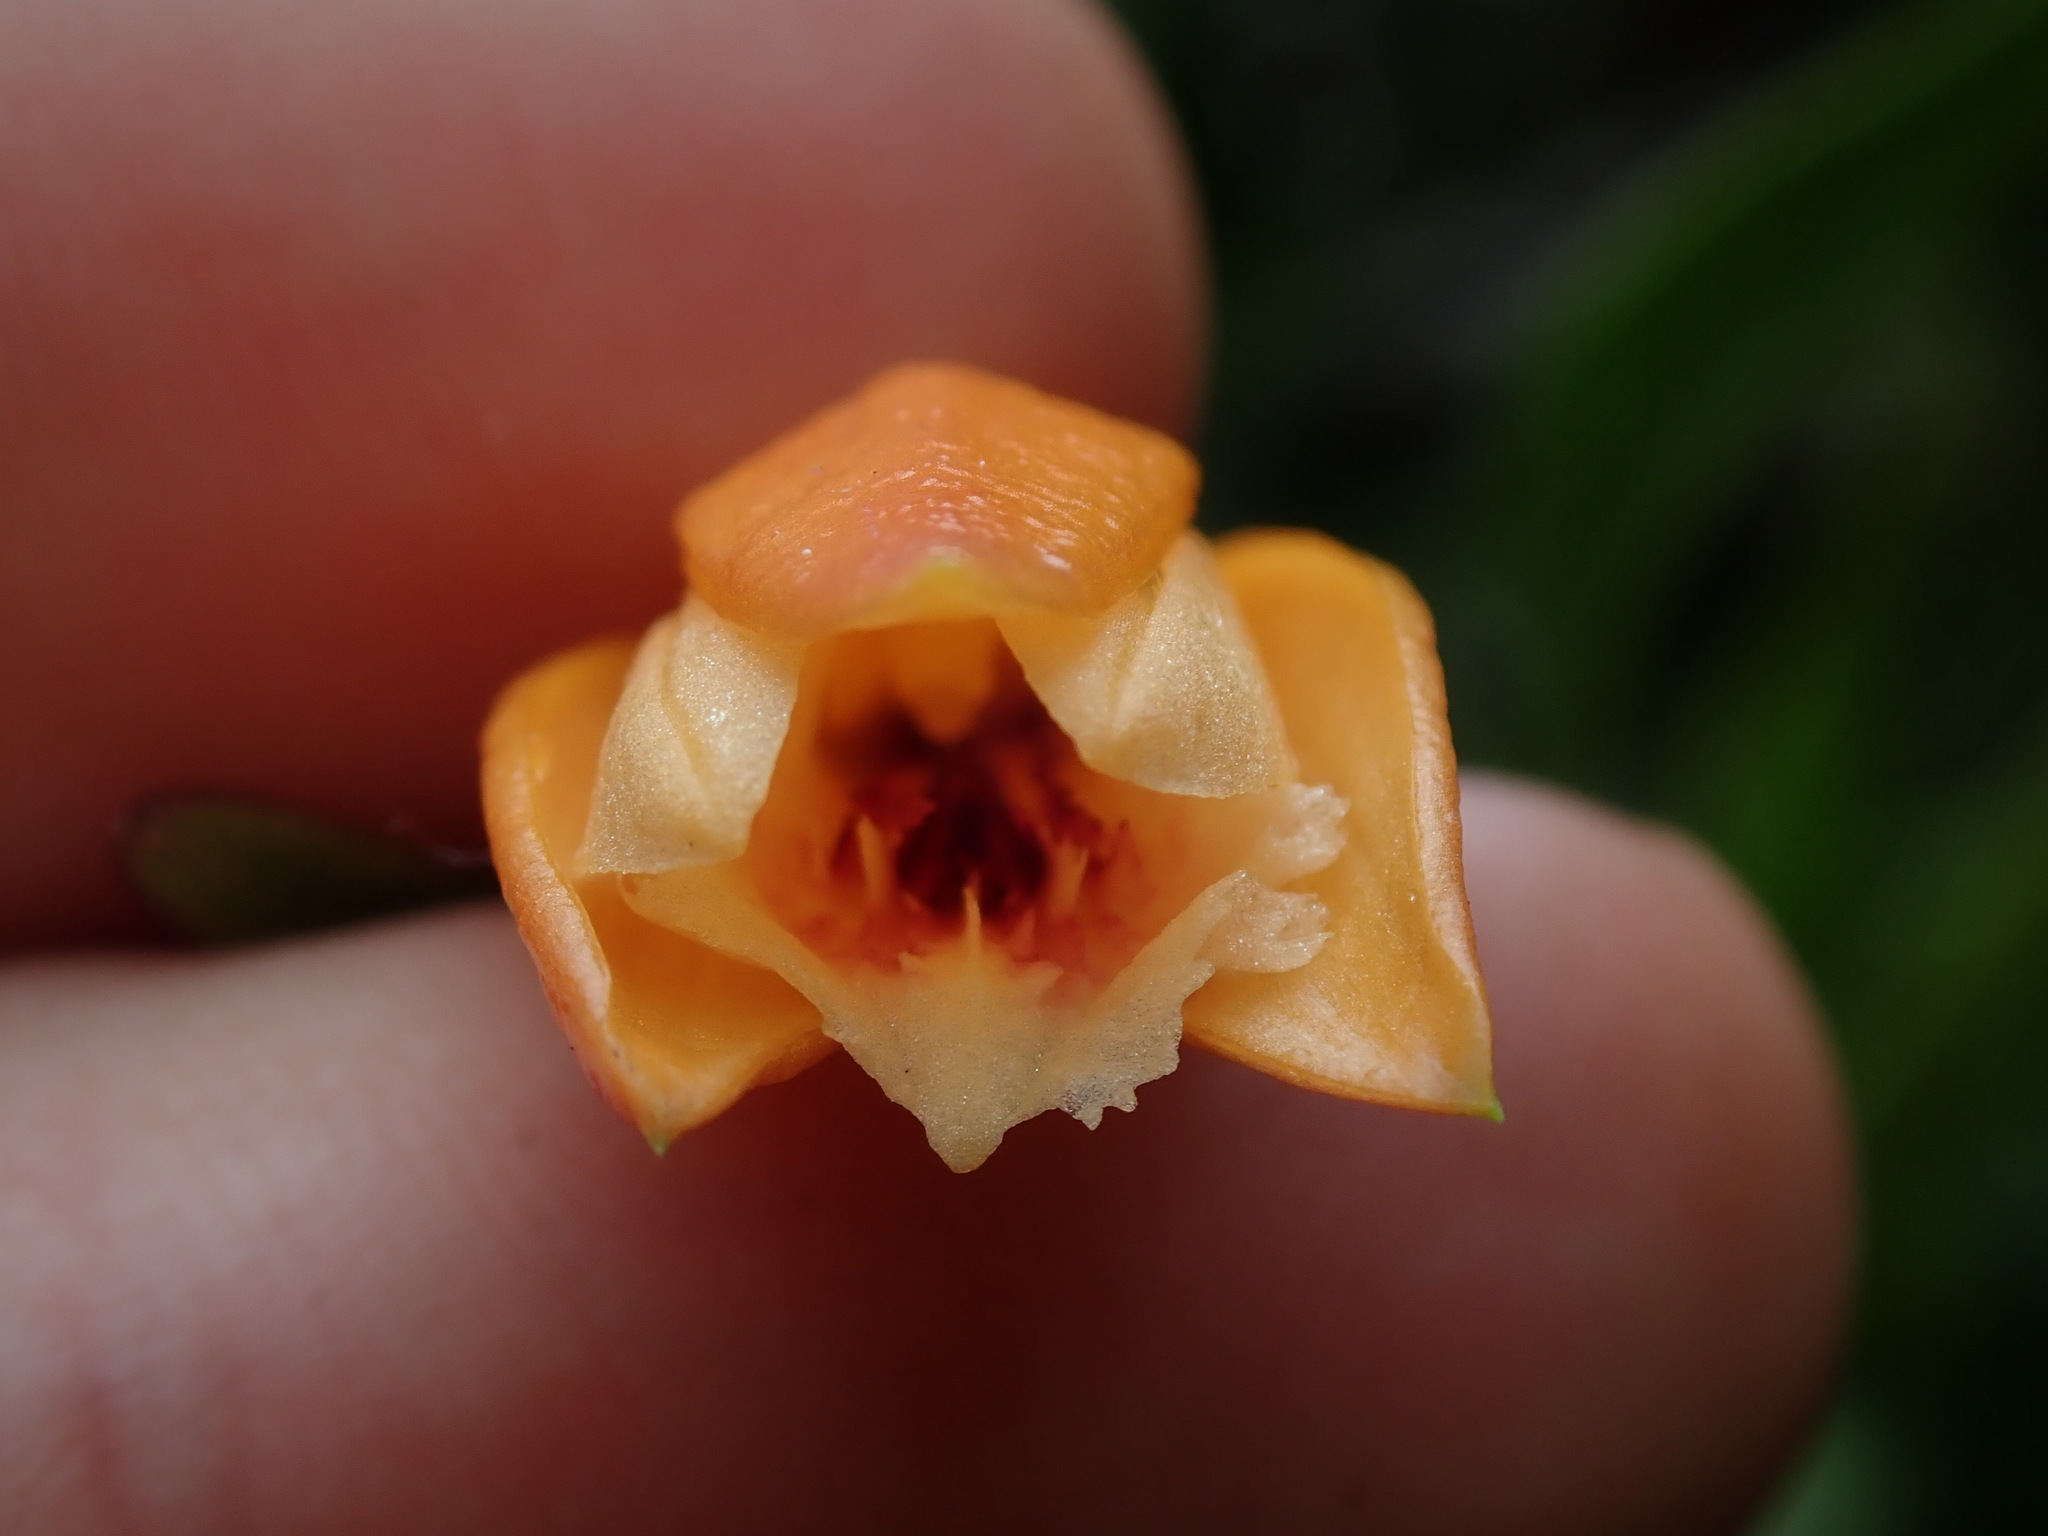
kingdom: Plantae
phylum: Tracheophyta
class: Liliopsida
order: Asparagales
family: Orchidaceae
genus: Sobralia
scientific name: Sobralia crocea
